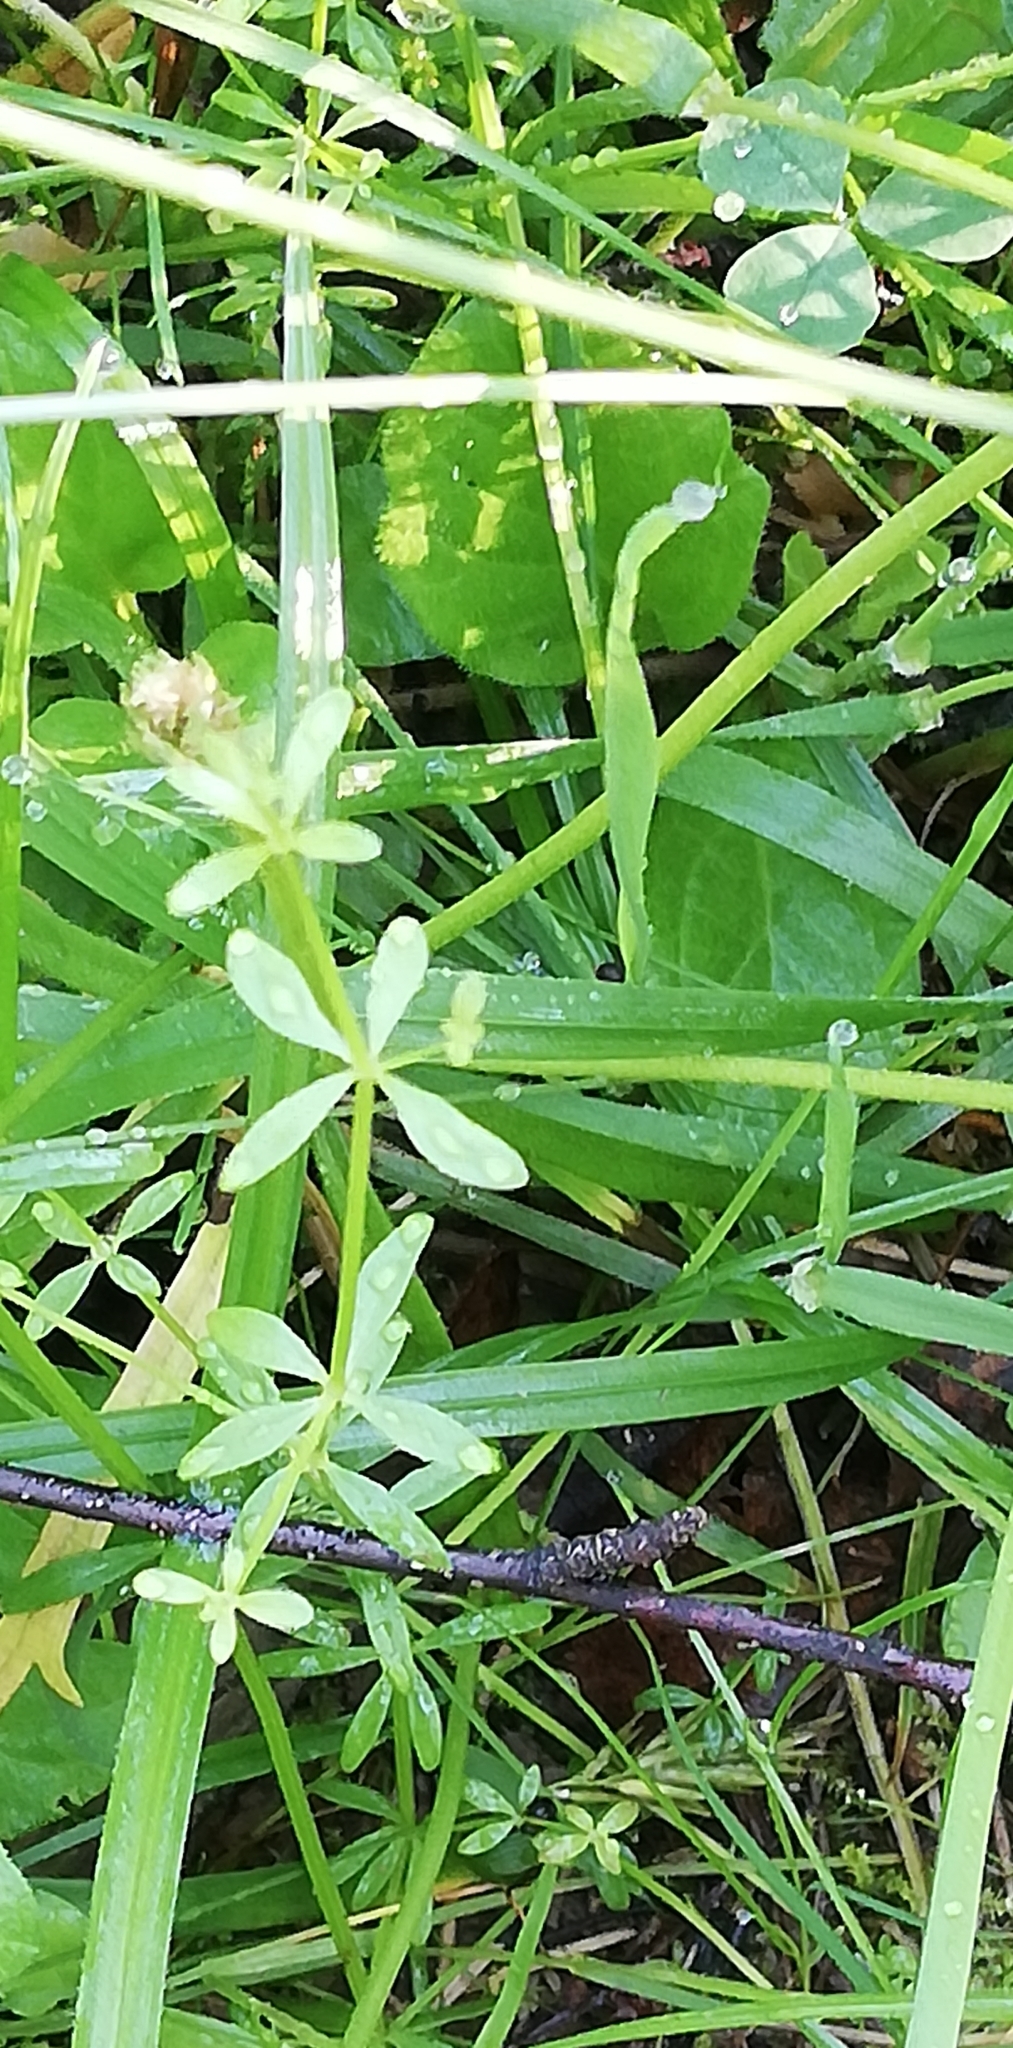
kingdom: Plantae
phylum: Tracheophyta
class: Magnoliopsida
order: Gentianales
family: Rubiaceae
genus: Galium
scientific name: Galium palustre
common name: Common marsh-bedstraw
